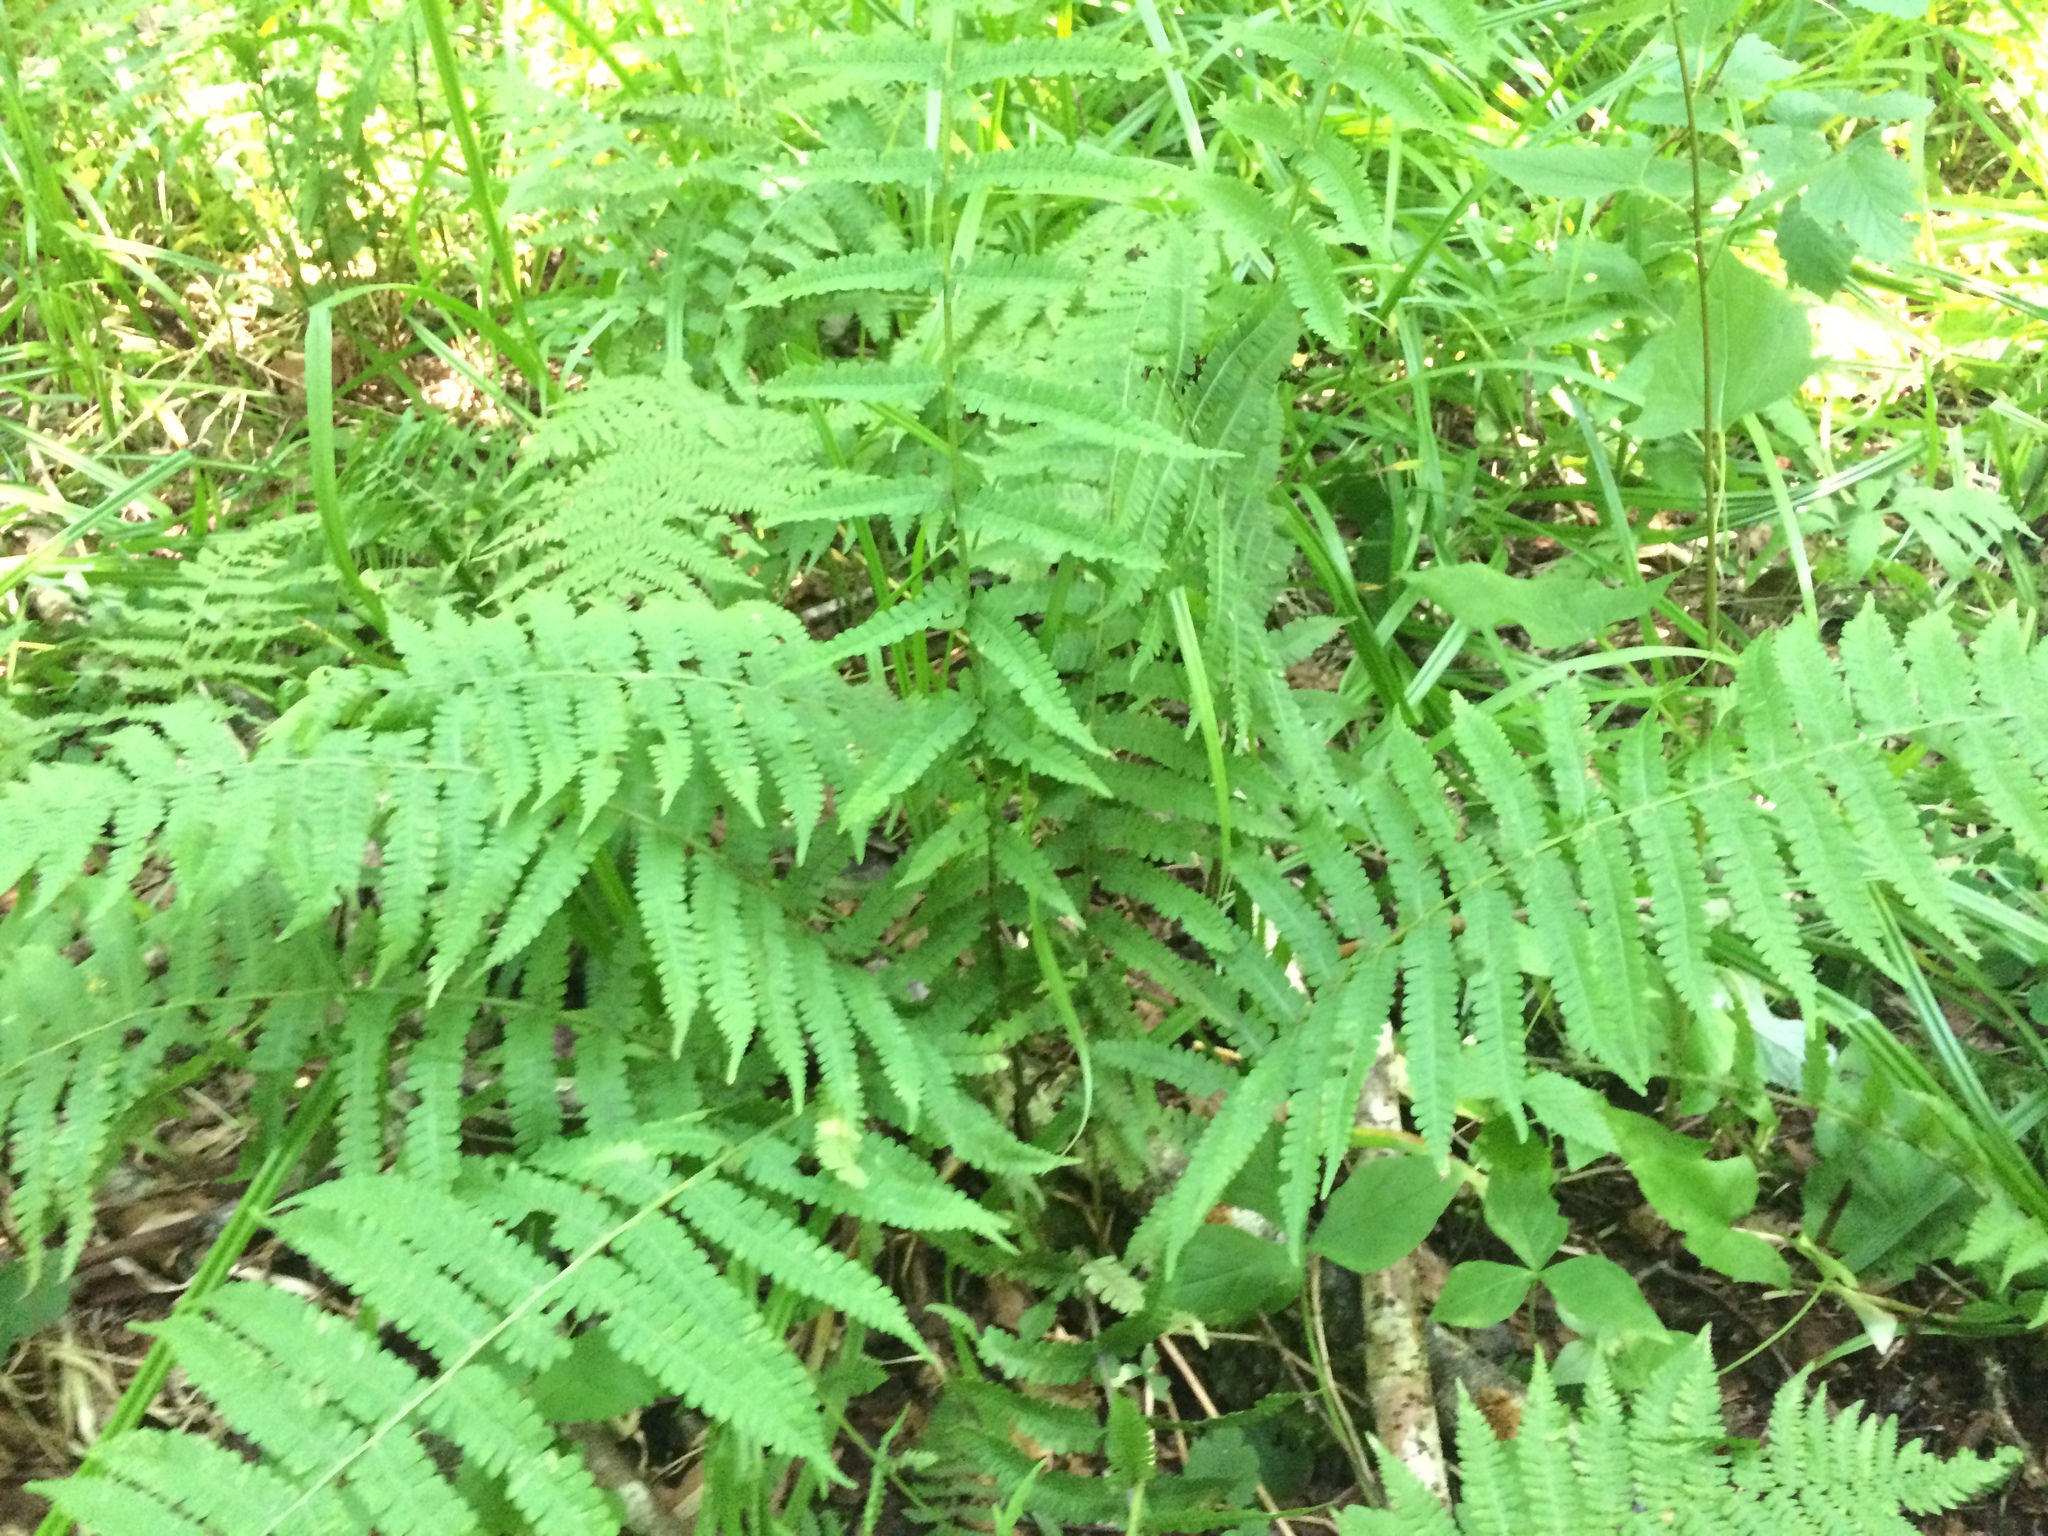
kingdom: Plantae
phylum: Tracheophyta
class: Polypodiopsida
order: Polypodiales
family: Athyriaceae
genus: Deparia
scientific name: Deparia acrostichoides
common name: Silver false spleenwort
